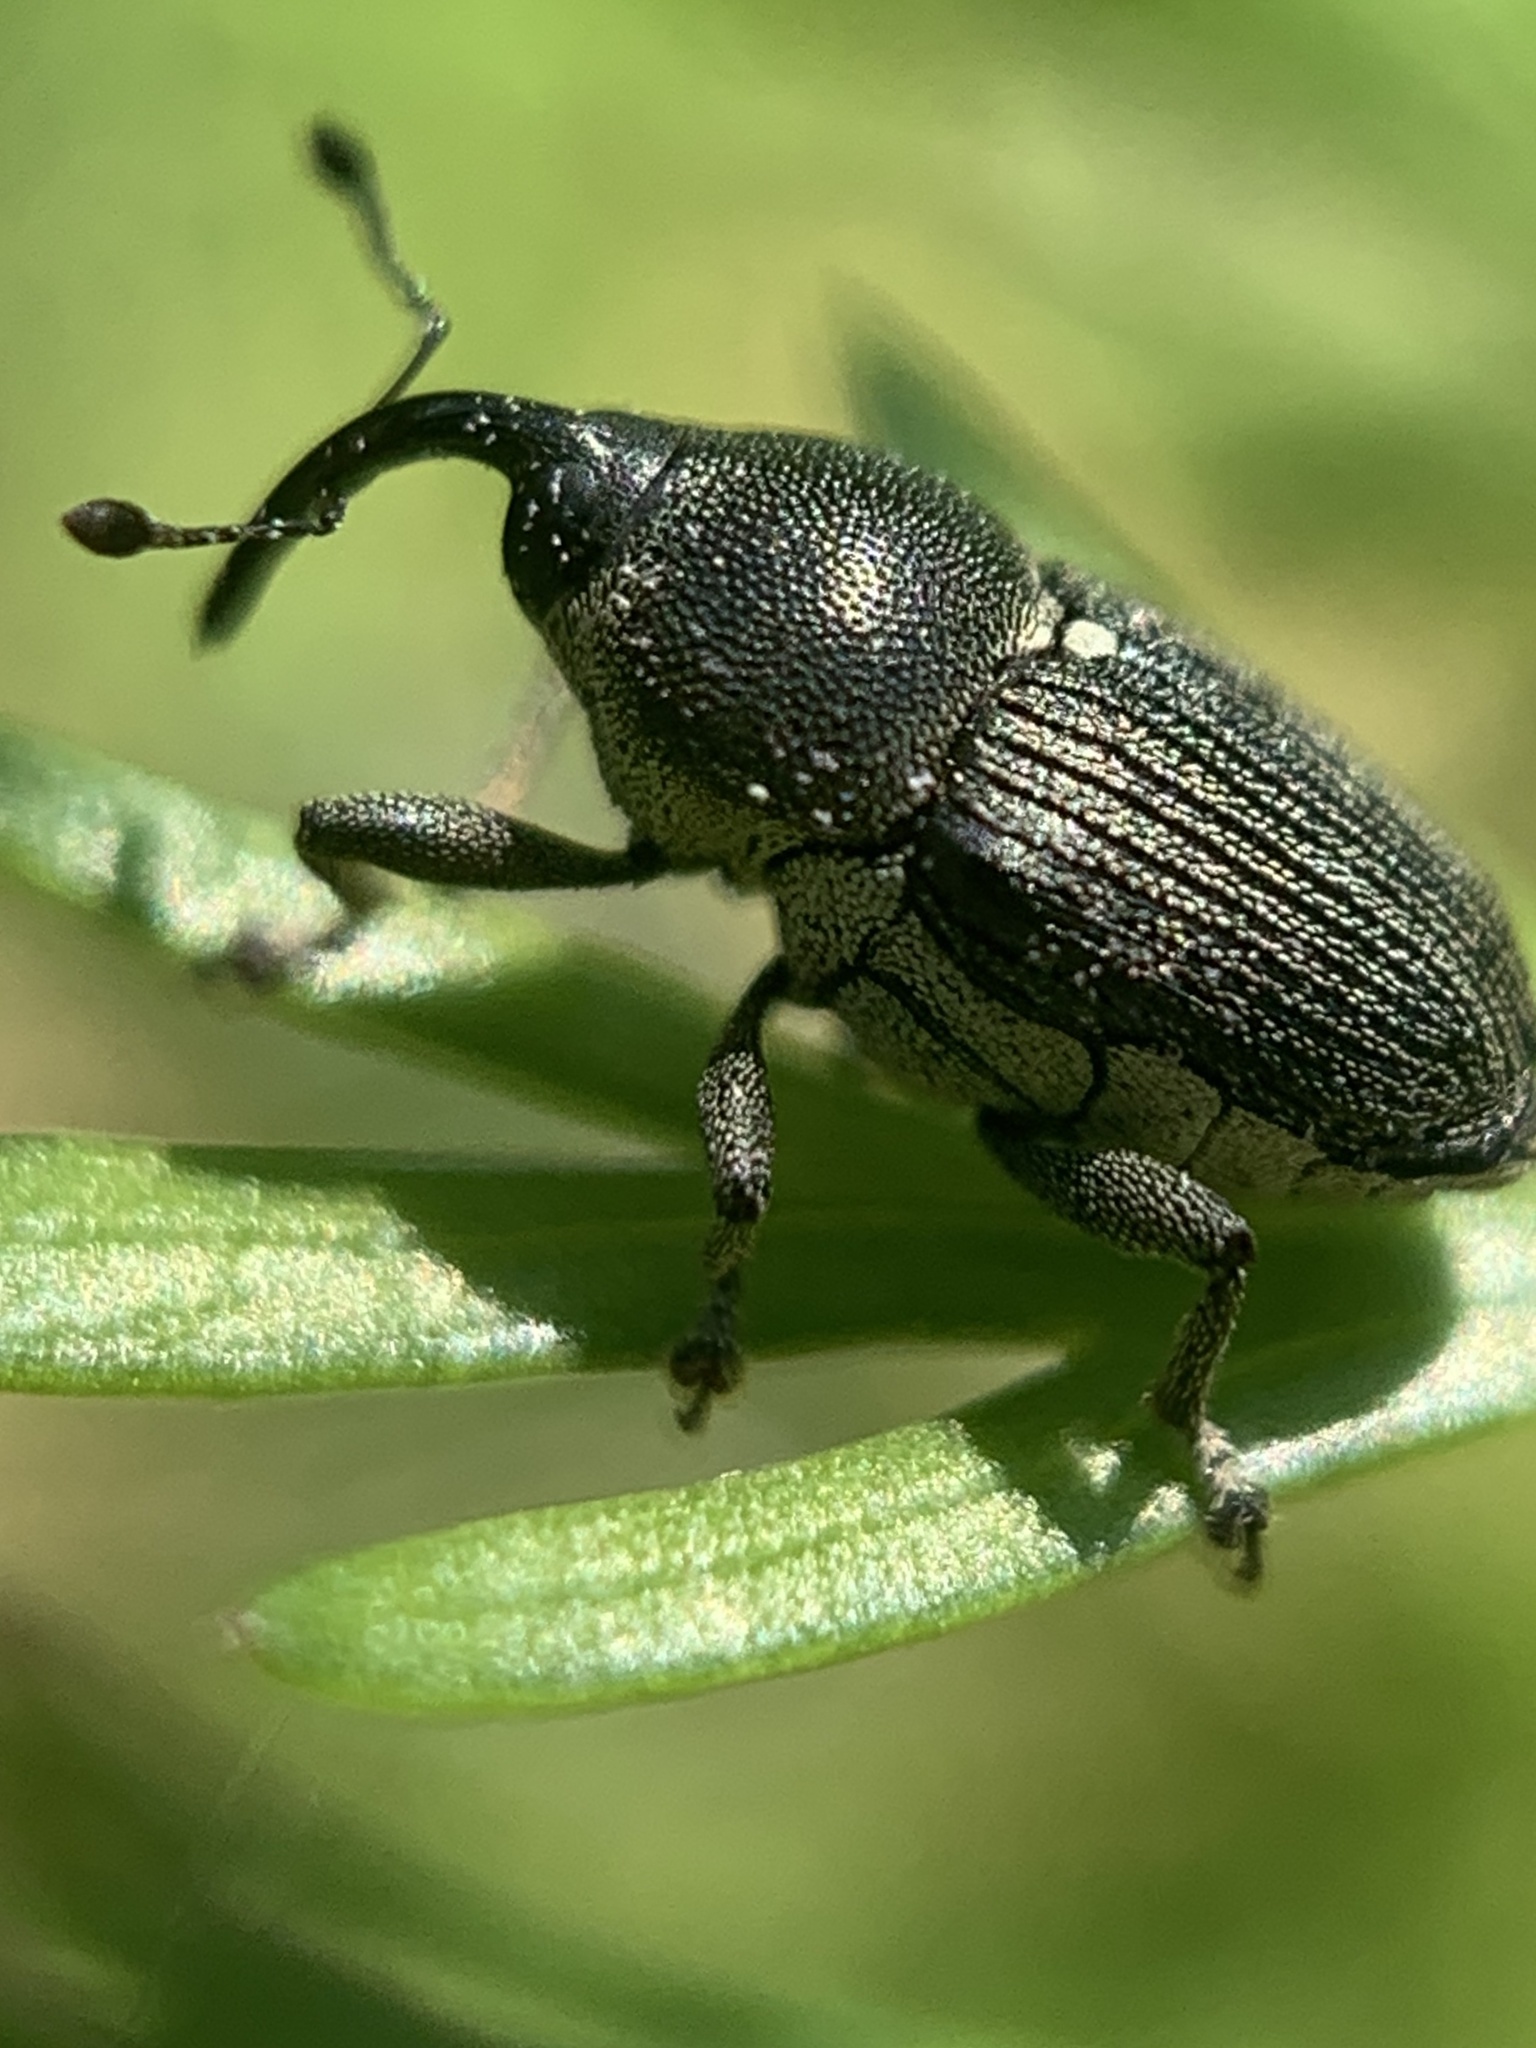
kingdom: Animalia
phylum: Arthropoda
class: Insecta
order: Coleoptera
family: Curculionidae
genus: Odontocorynus
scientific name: Odontocorynus umbellae
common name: Daisy flower weevil
